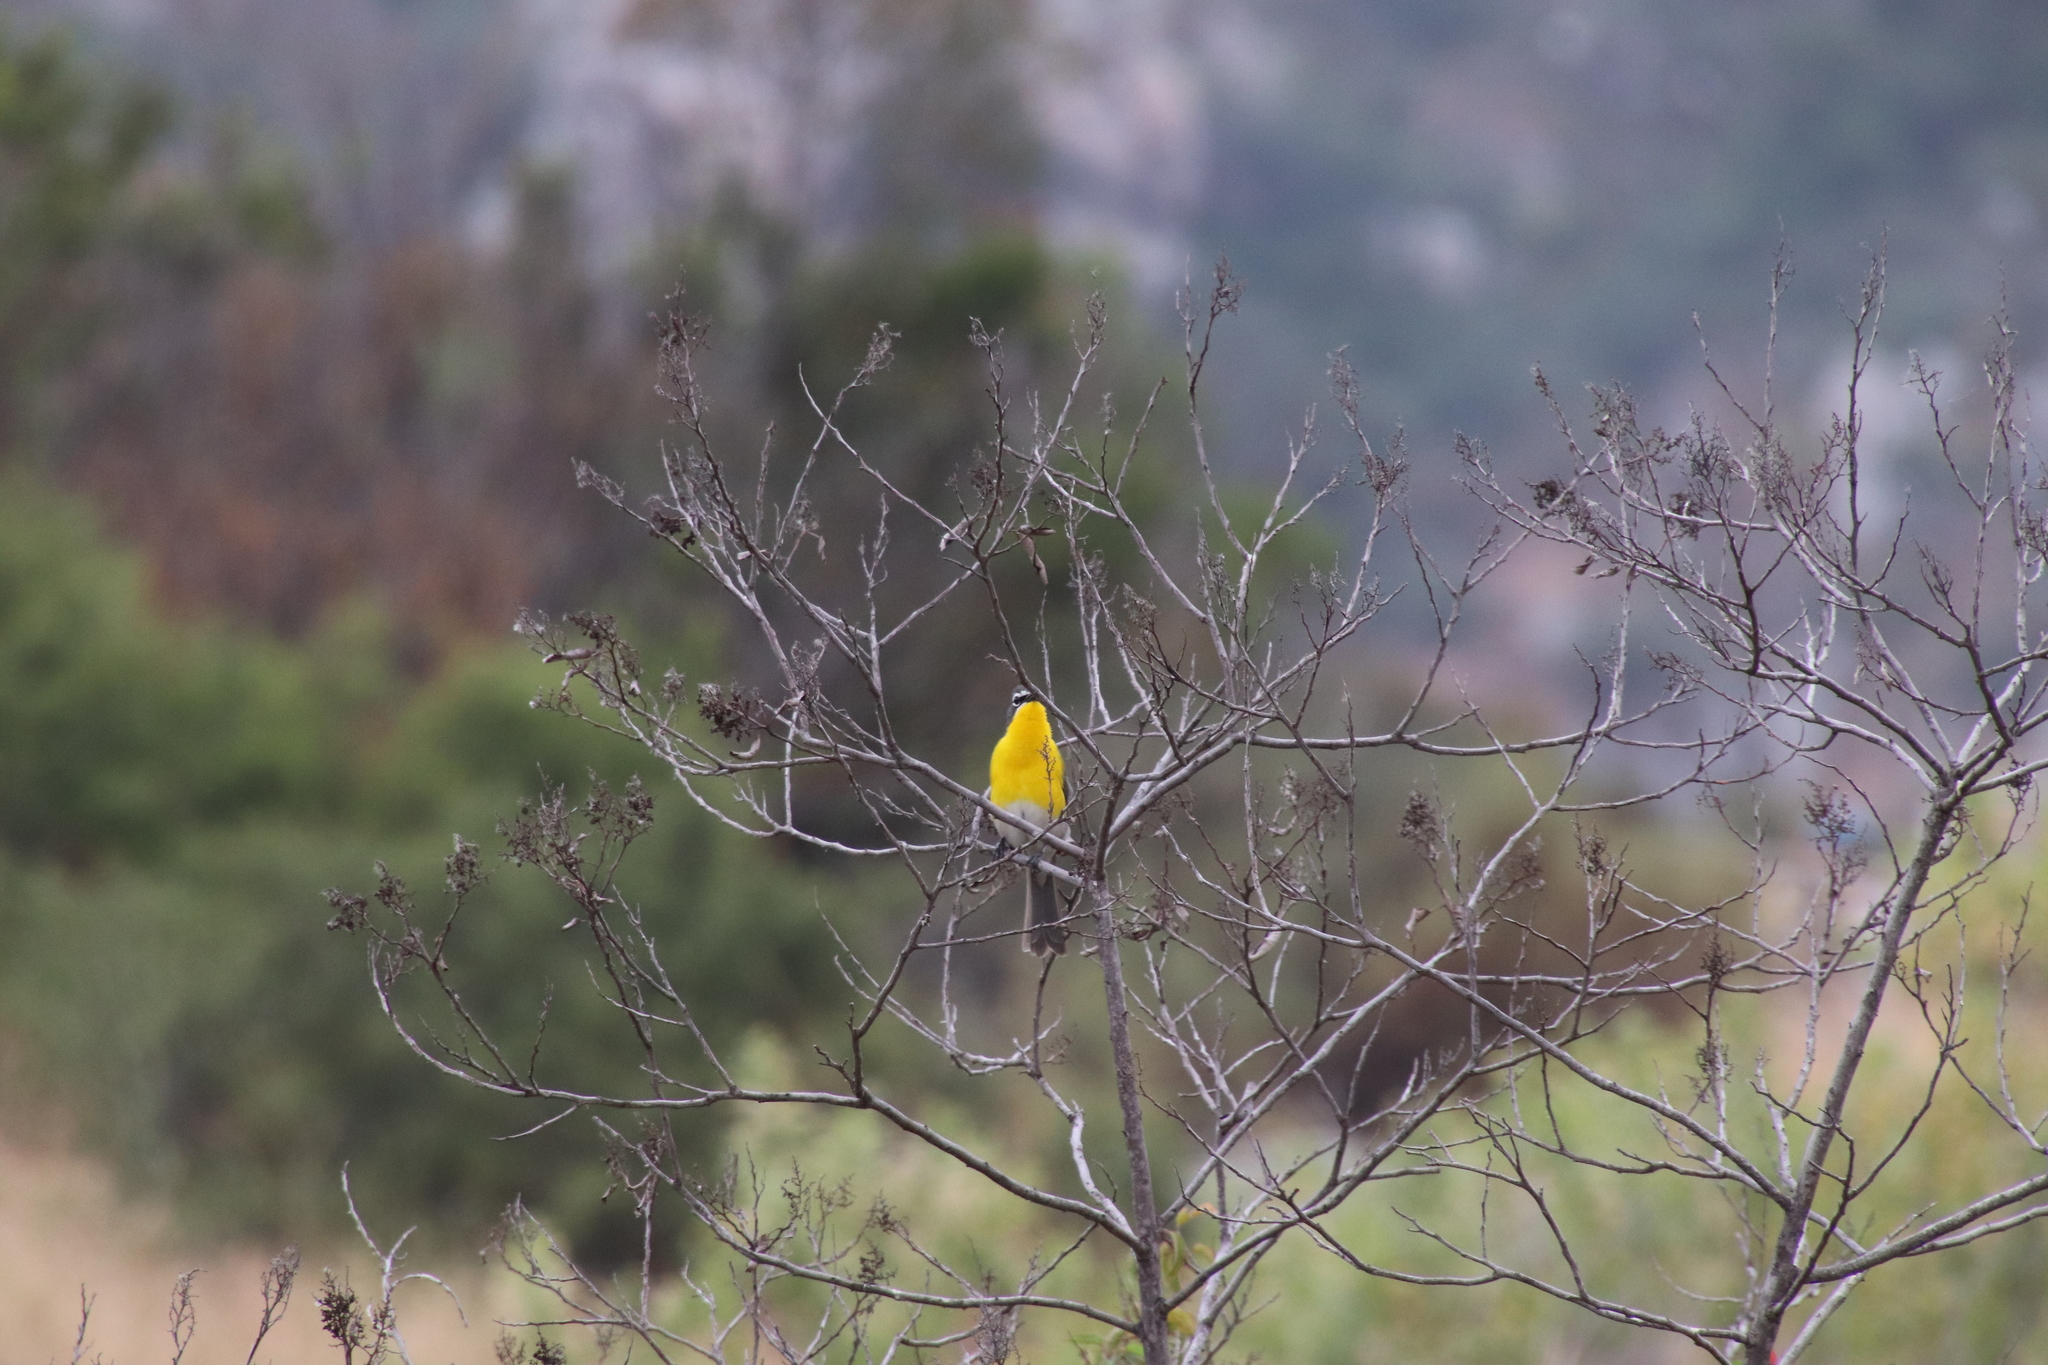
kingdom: Animalia
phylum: Chordata
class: Aves
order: Passeriformes
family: Parulidae
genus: Icteria
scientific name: Icteria virens
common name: Yellow-breasted chat
